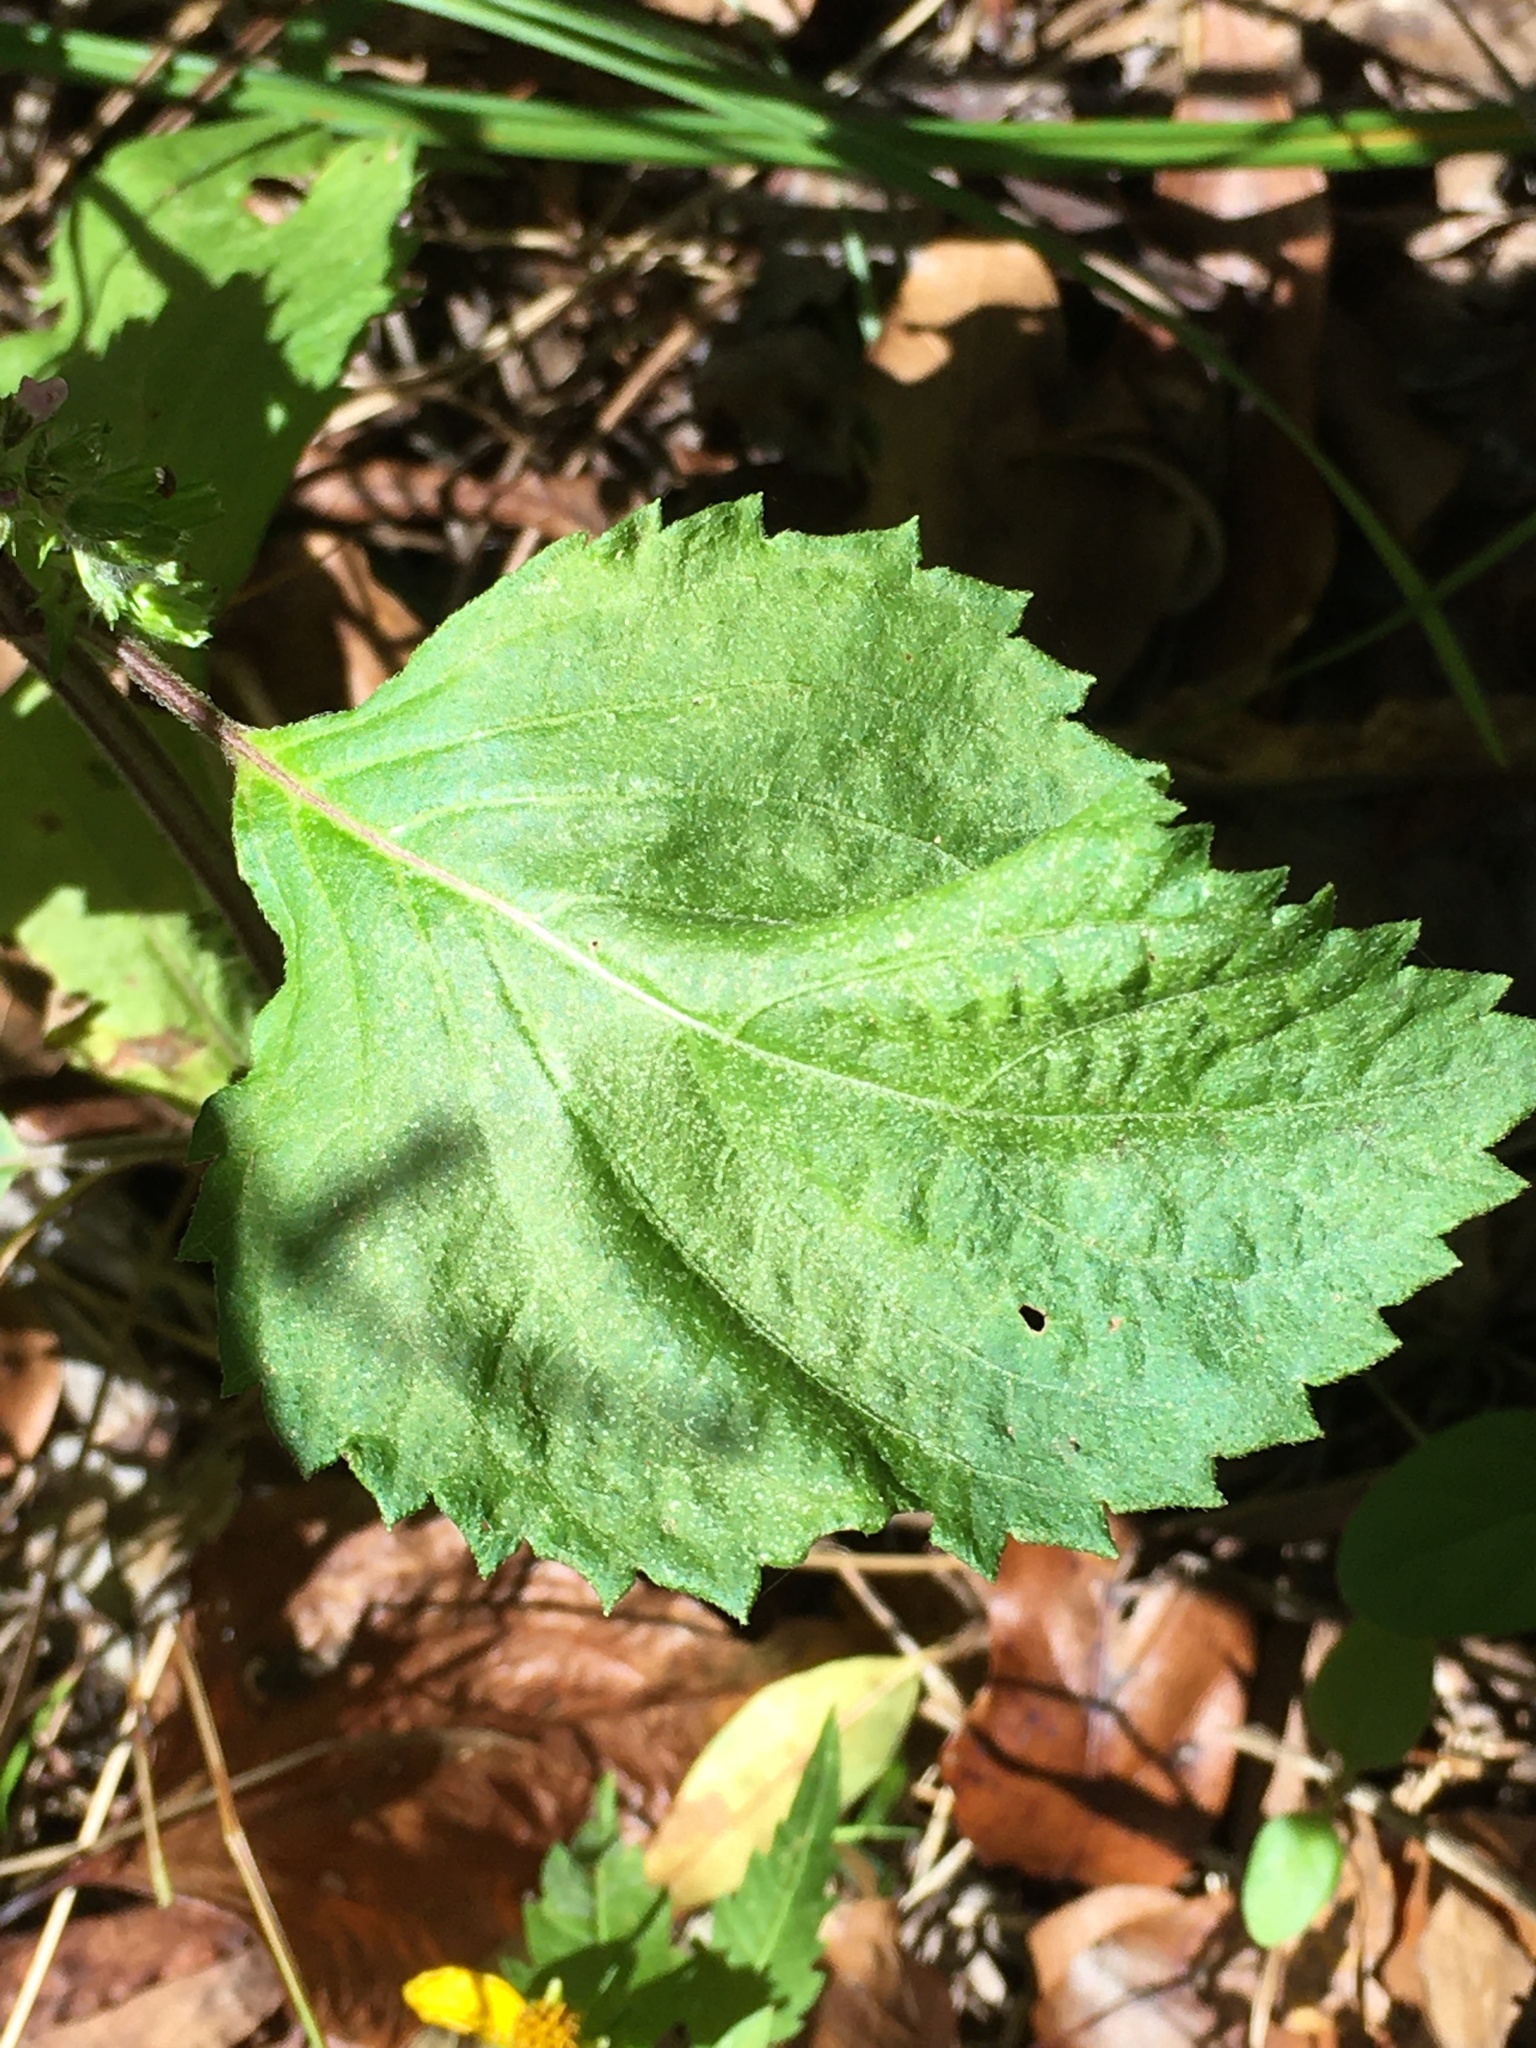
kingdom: Plantae
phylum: Tracheophyta
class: Magnoliopsida
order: Lamiales
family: Lamiaceae
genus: Perilla
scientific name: Perilla frutescens
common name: Perilla
